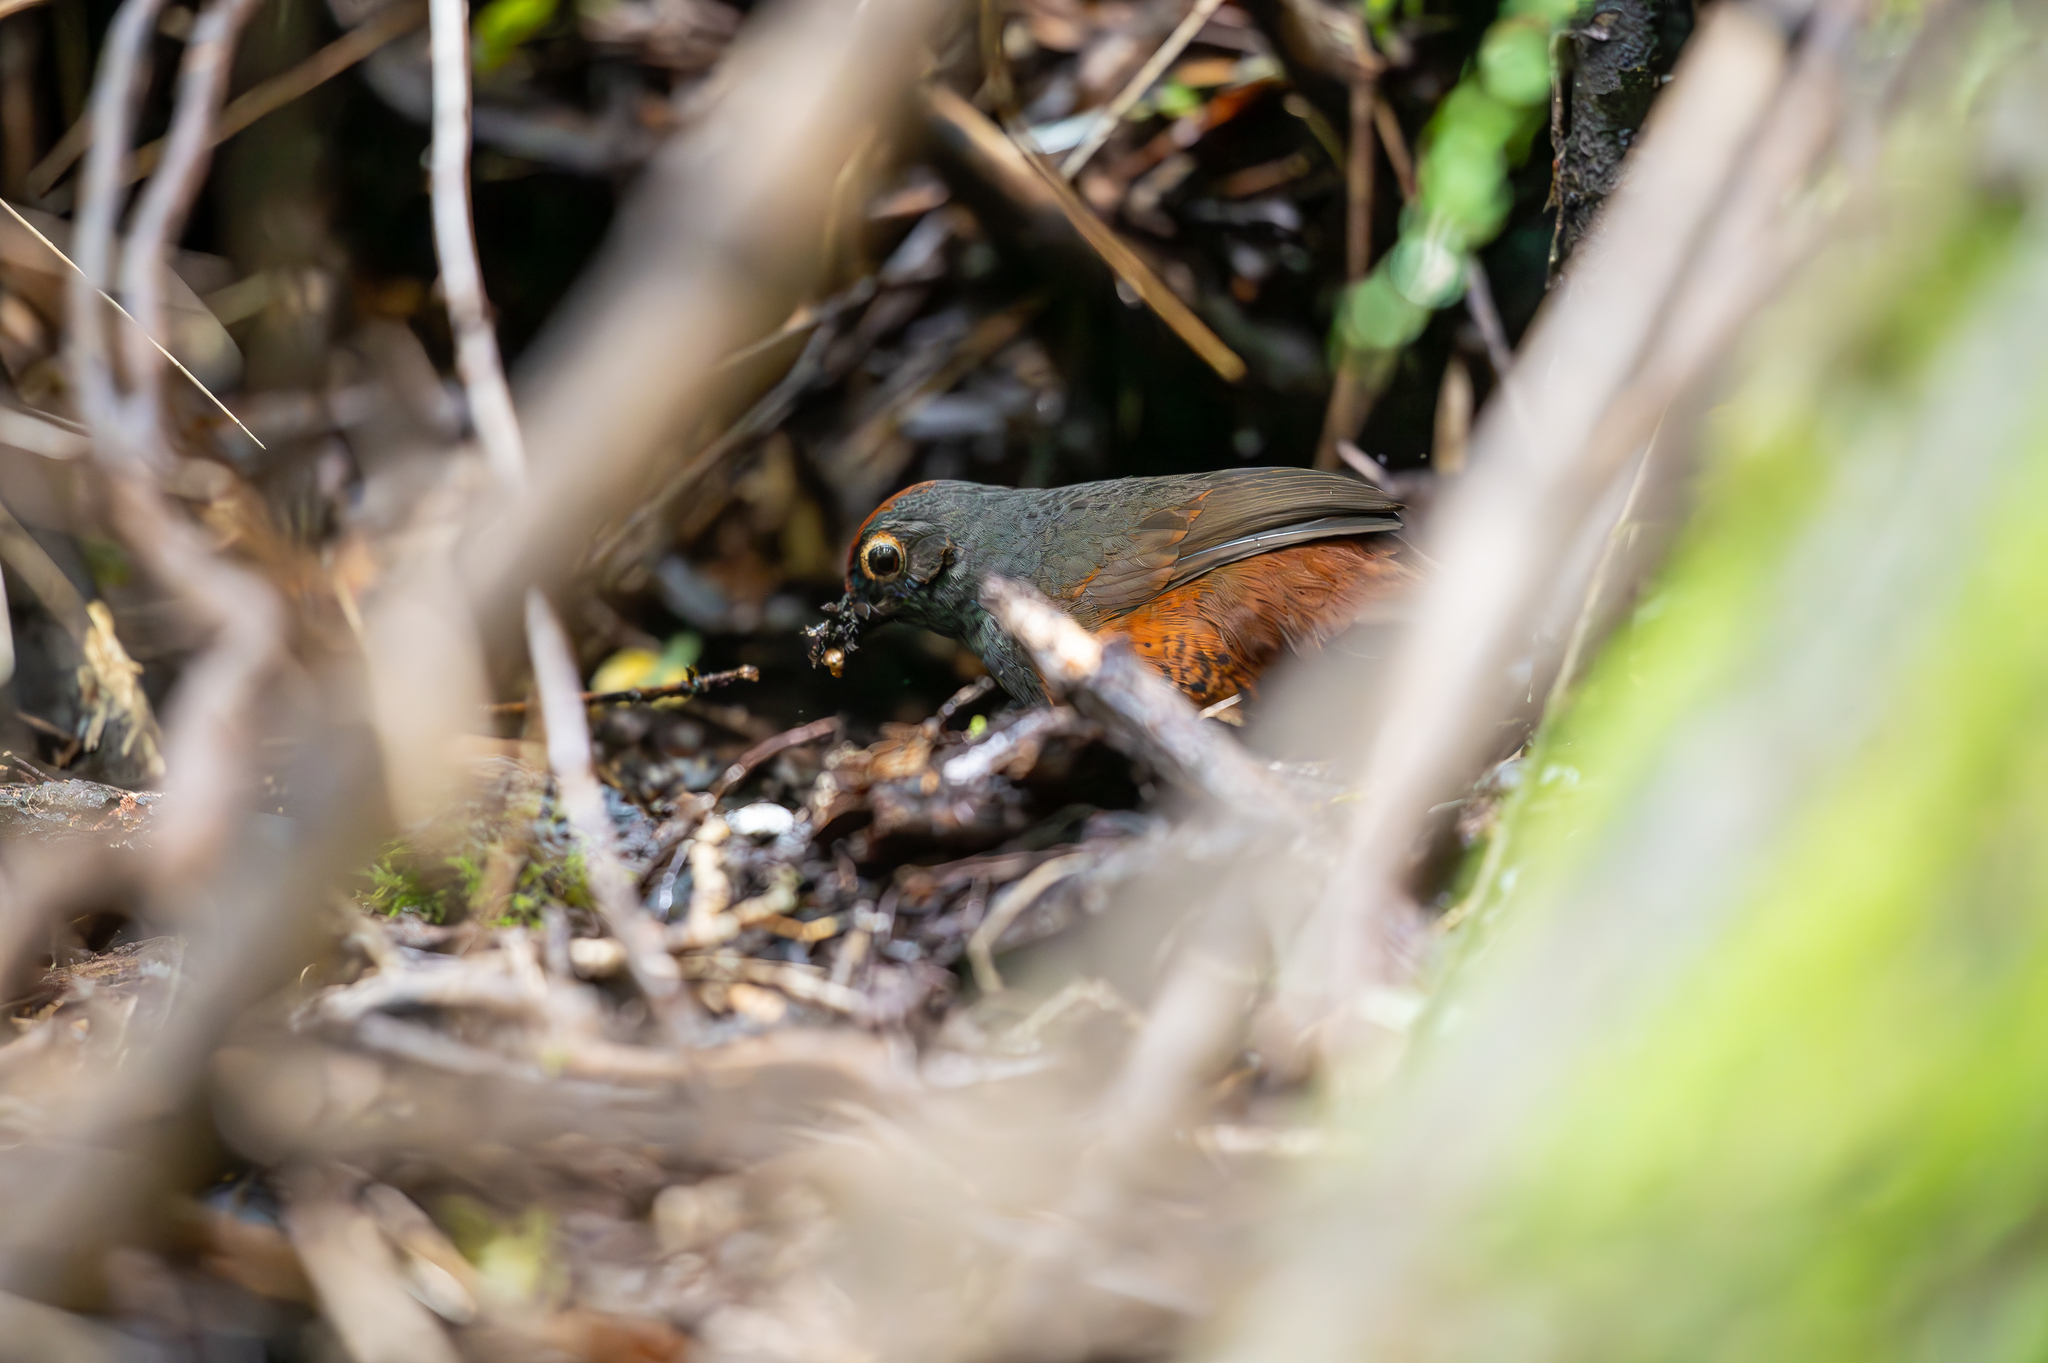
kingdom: Animalia
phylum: Chordata
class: Aves
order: Passeriformes
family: Rhinocryptidae
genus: Pteroptochos
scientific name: Pteroptochos tarnii
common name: Black-throated huet-huet
